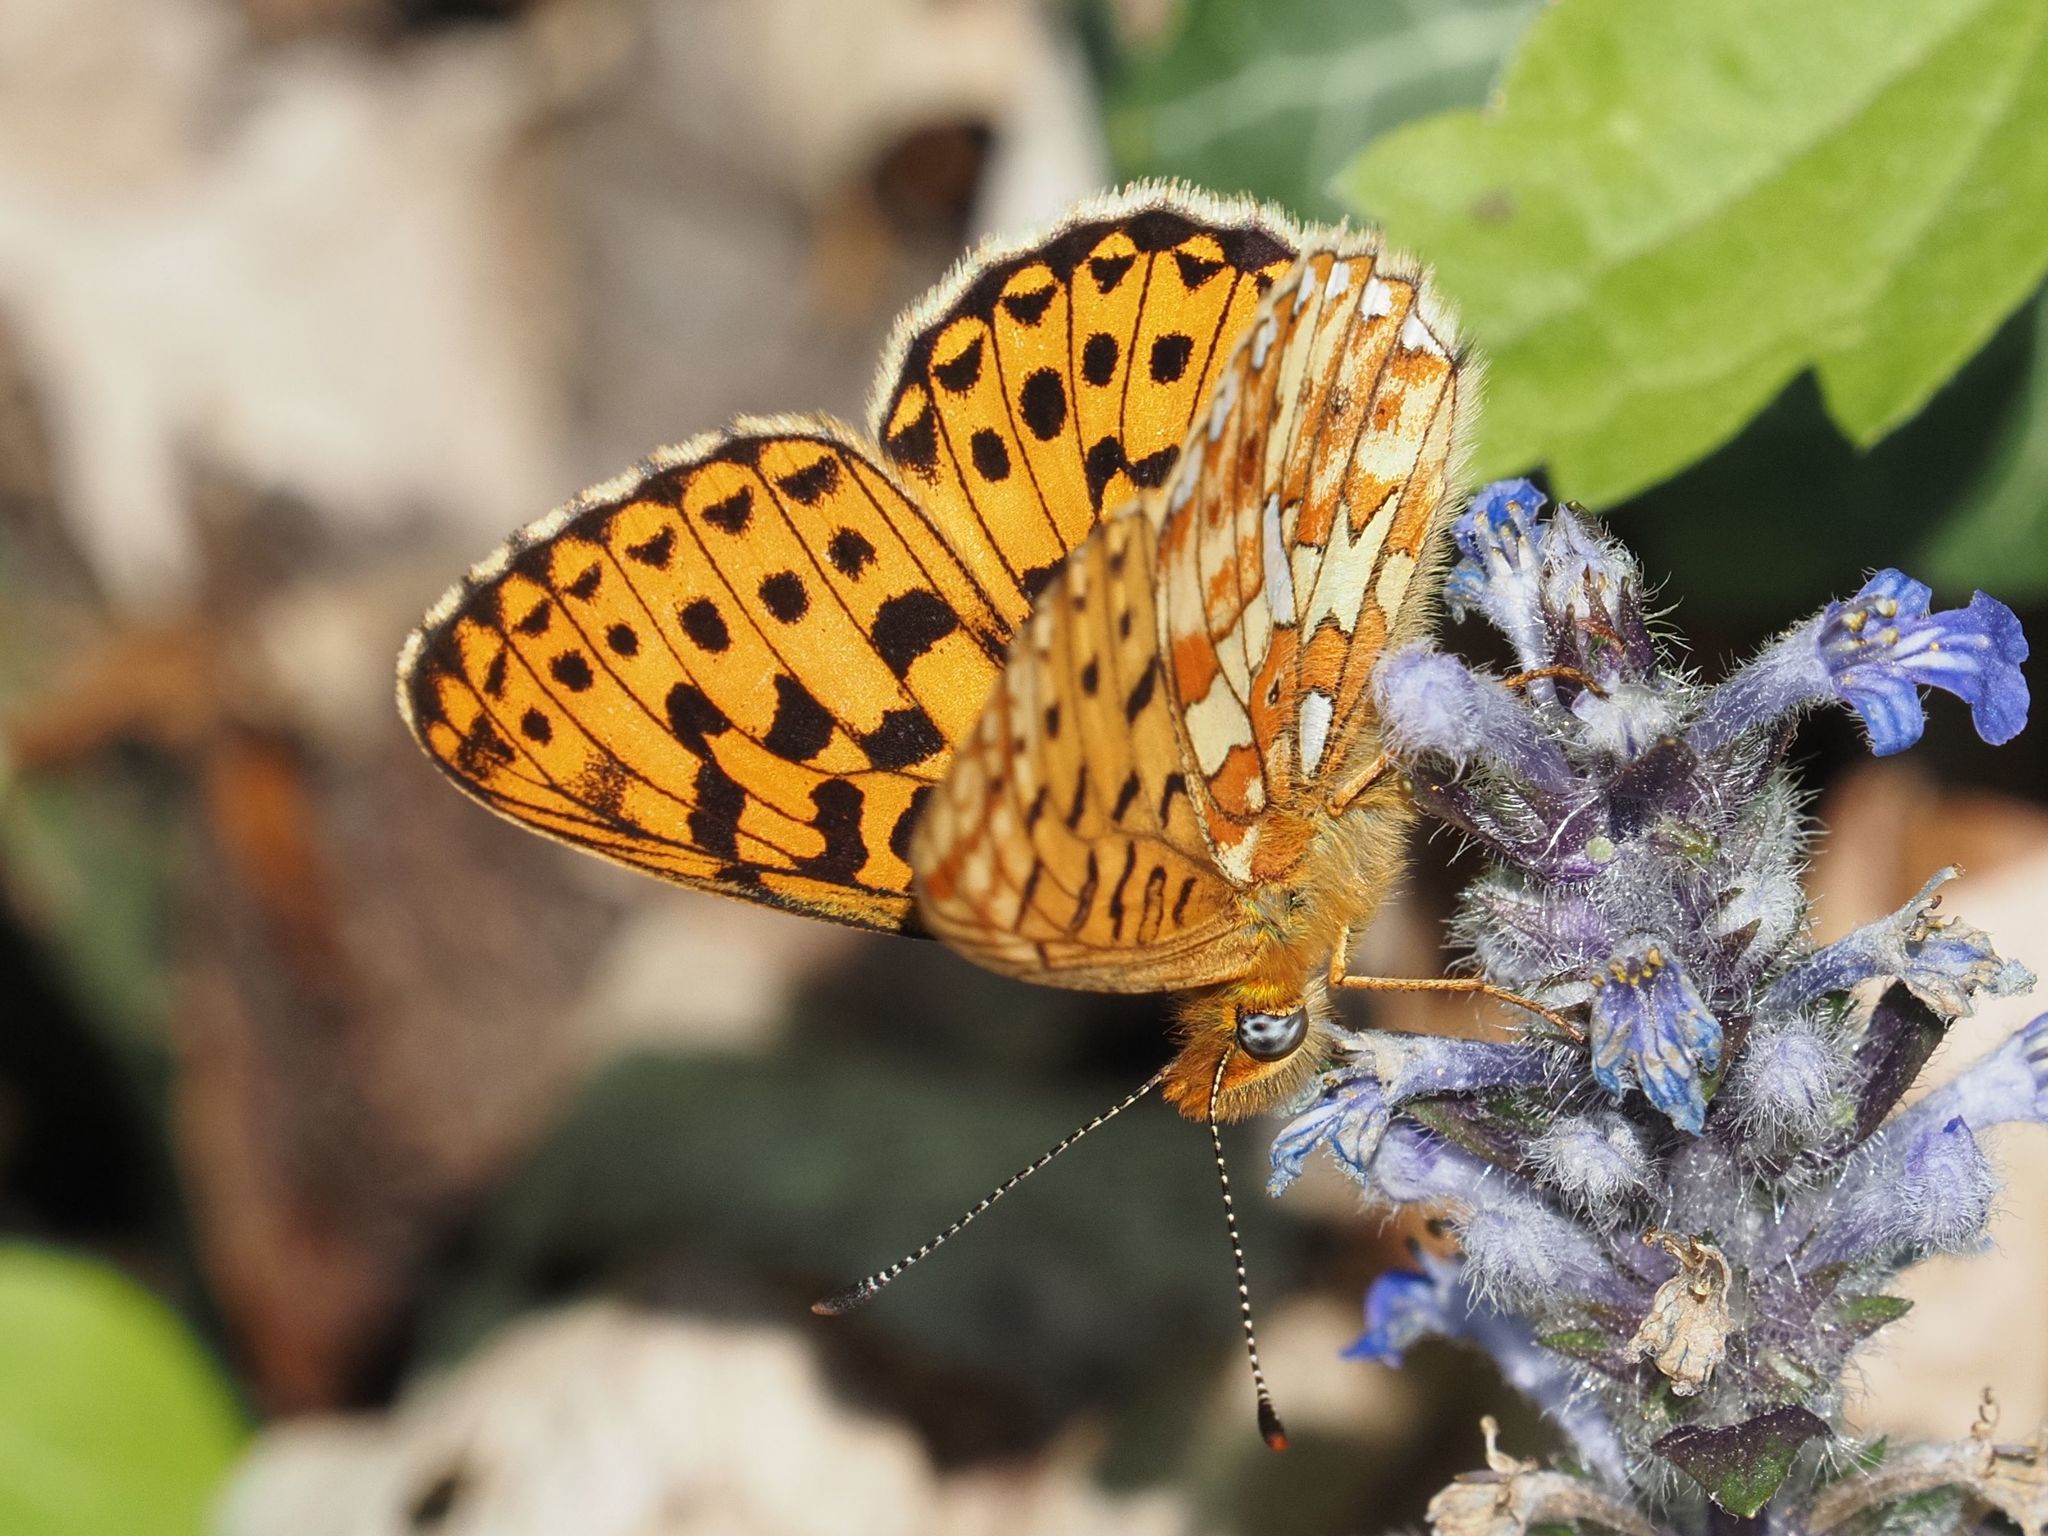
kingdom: Animalia
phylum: Arthropoda
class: Insecta
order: Lepidoptera
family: Nymphalidae
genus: Clossiana
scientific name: Clossiana euphrosyne
